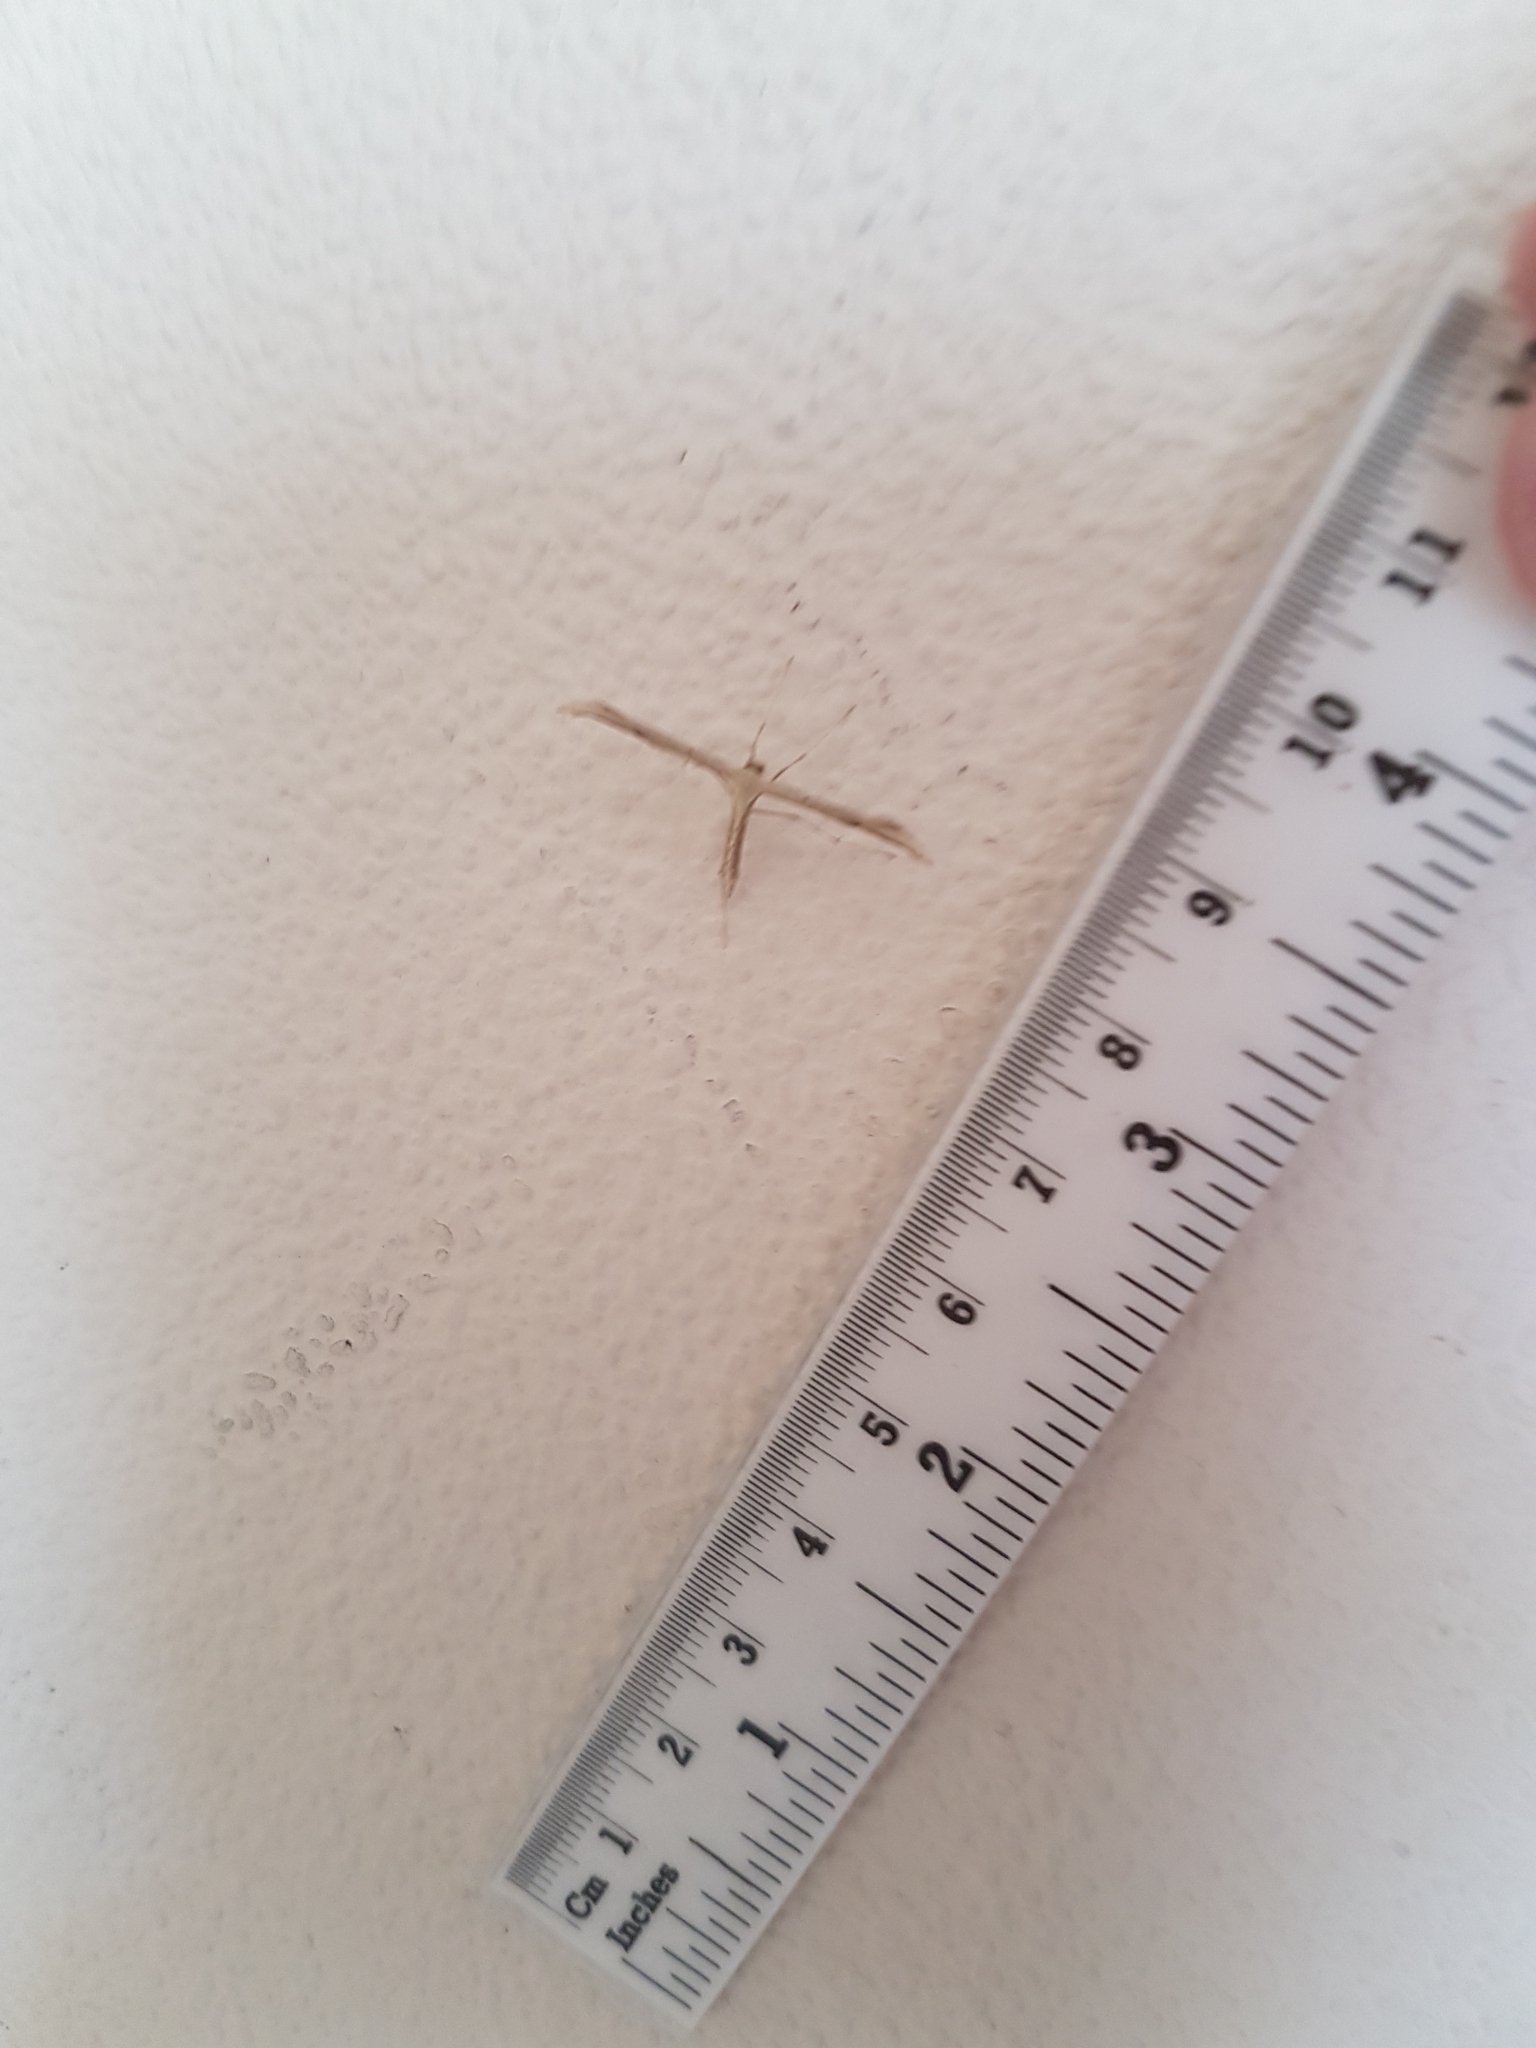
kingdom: Animalia
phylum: Arthropoda
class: Insecta
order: Lepidoptera
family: Pterophoridae
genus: Emmelina
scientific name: Emmelina monodactyla
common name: Common plume
